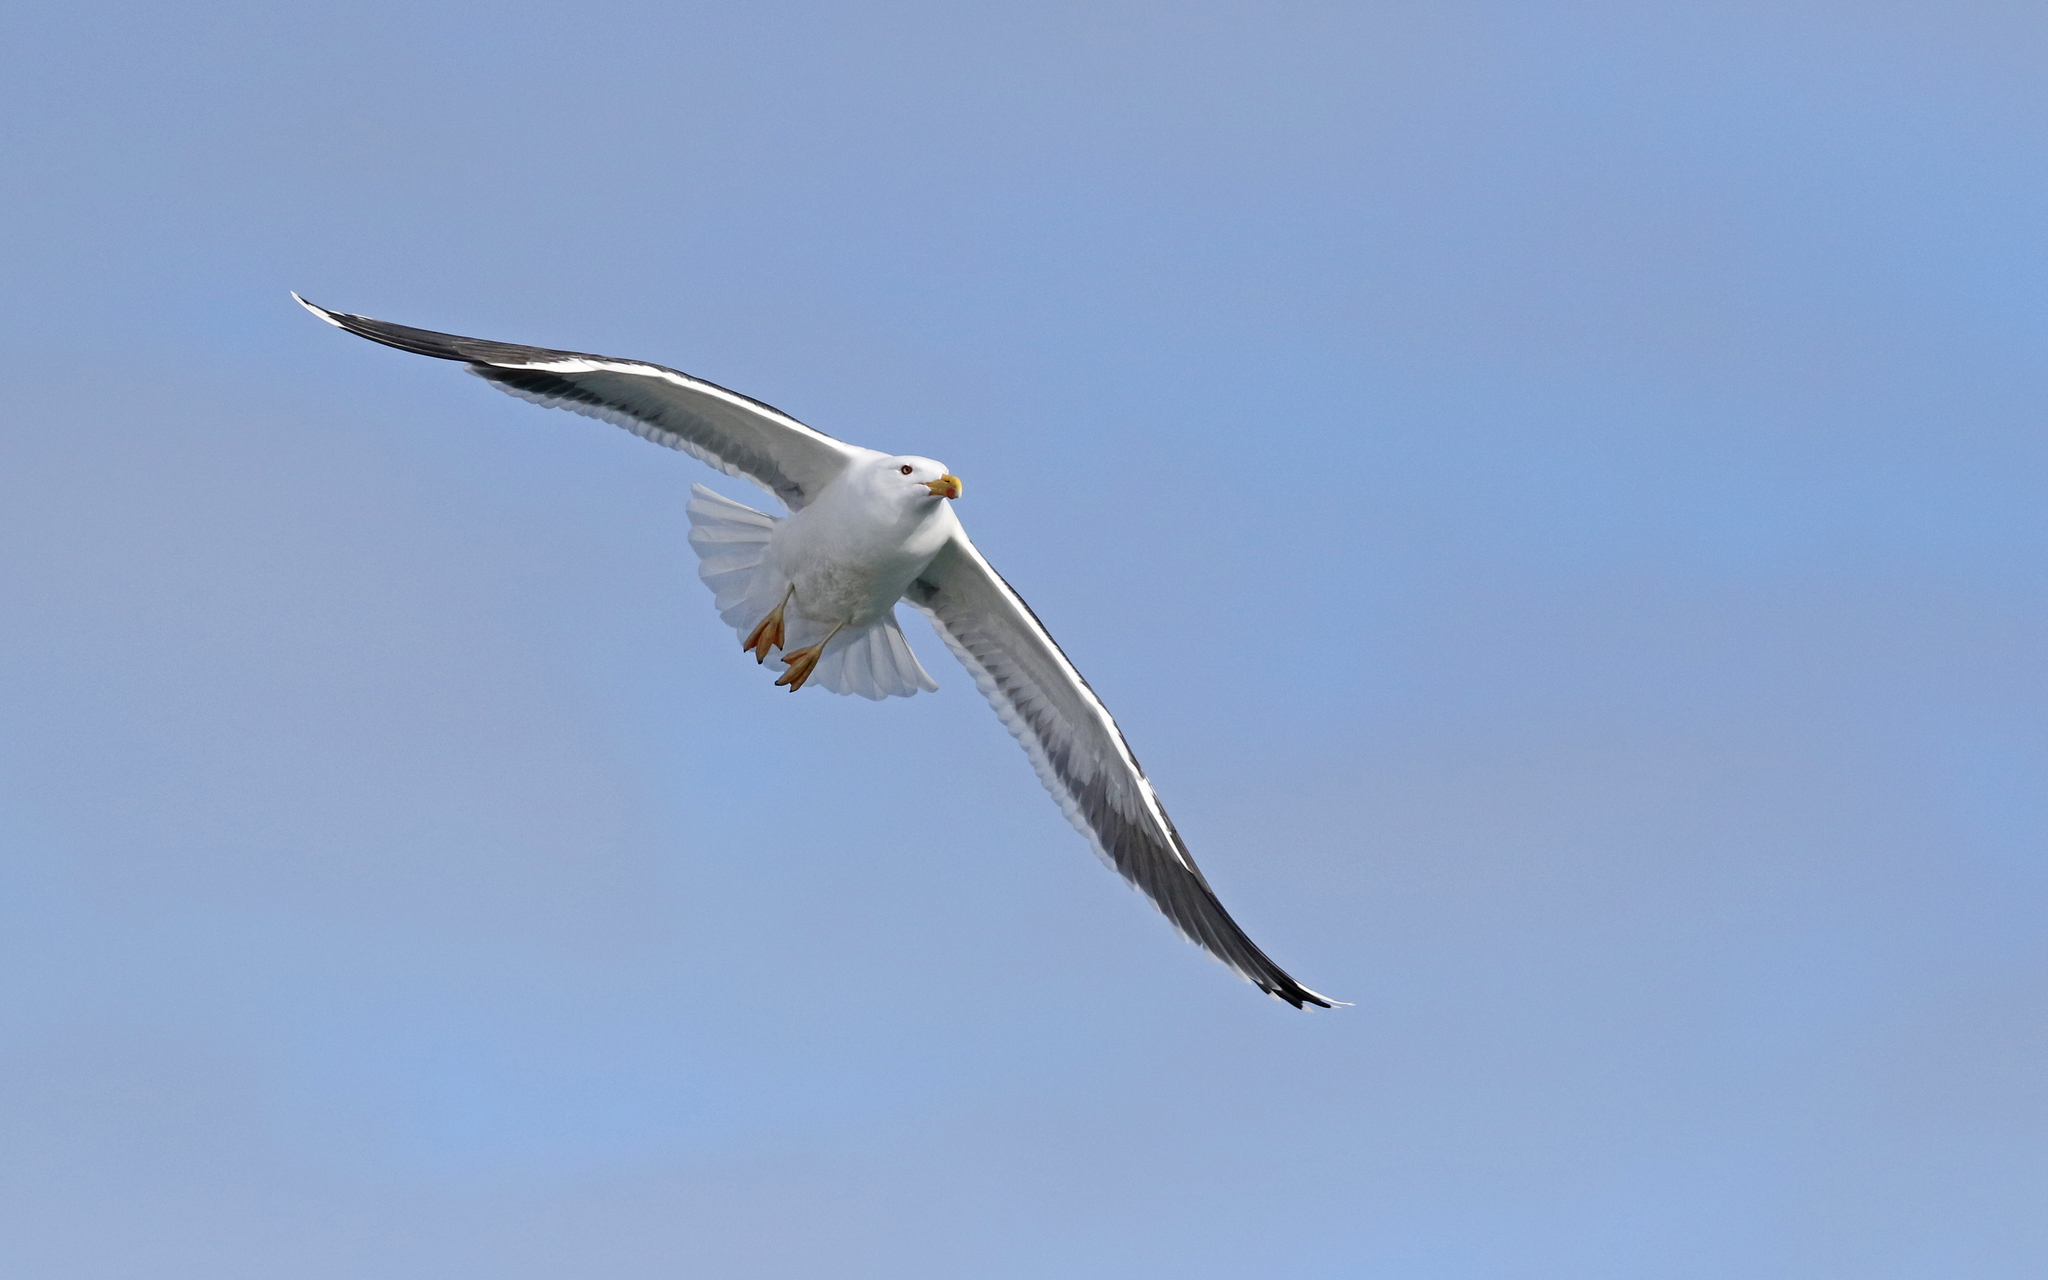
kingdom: Animalia
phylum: Chordata
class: Aves
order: Charadriiformes
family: Laridae
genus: Larus
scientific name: Larus marinus
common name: Great black-backed gull
